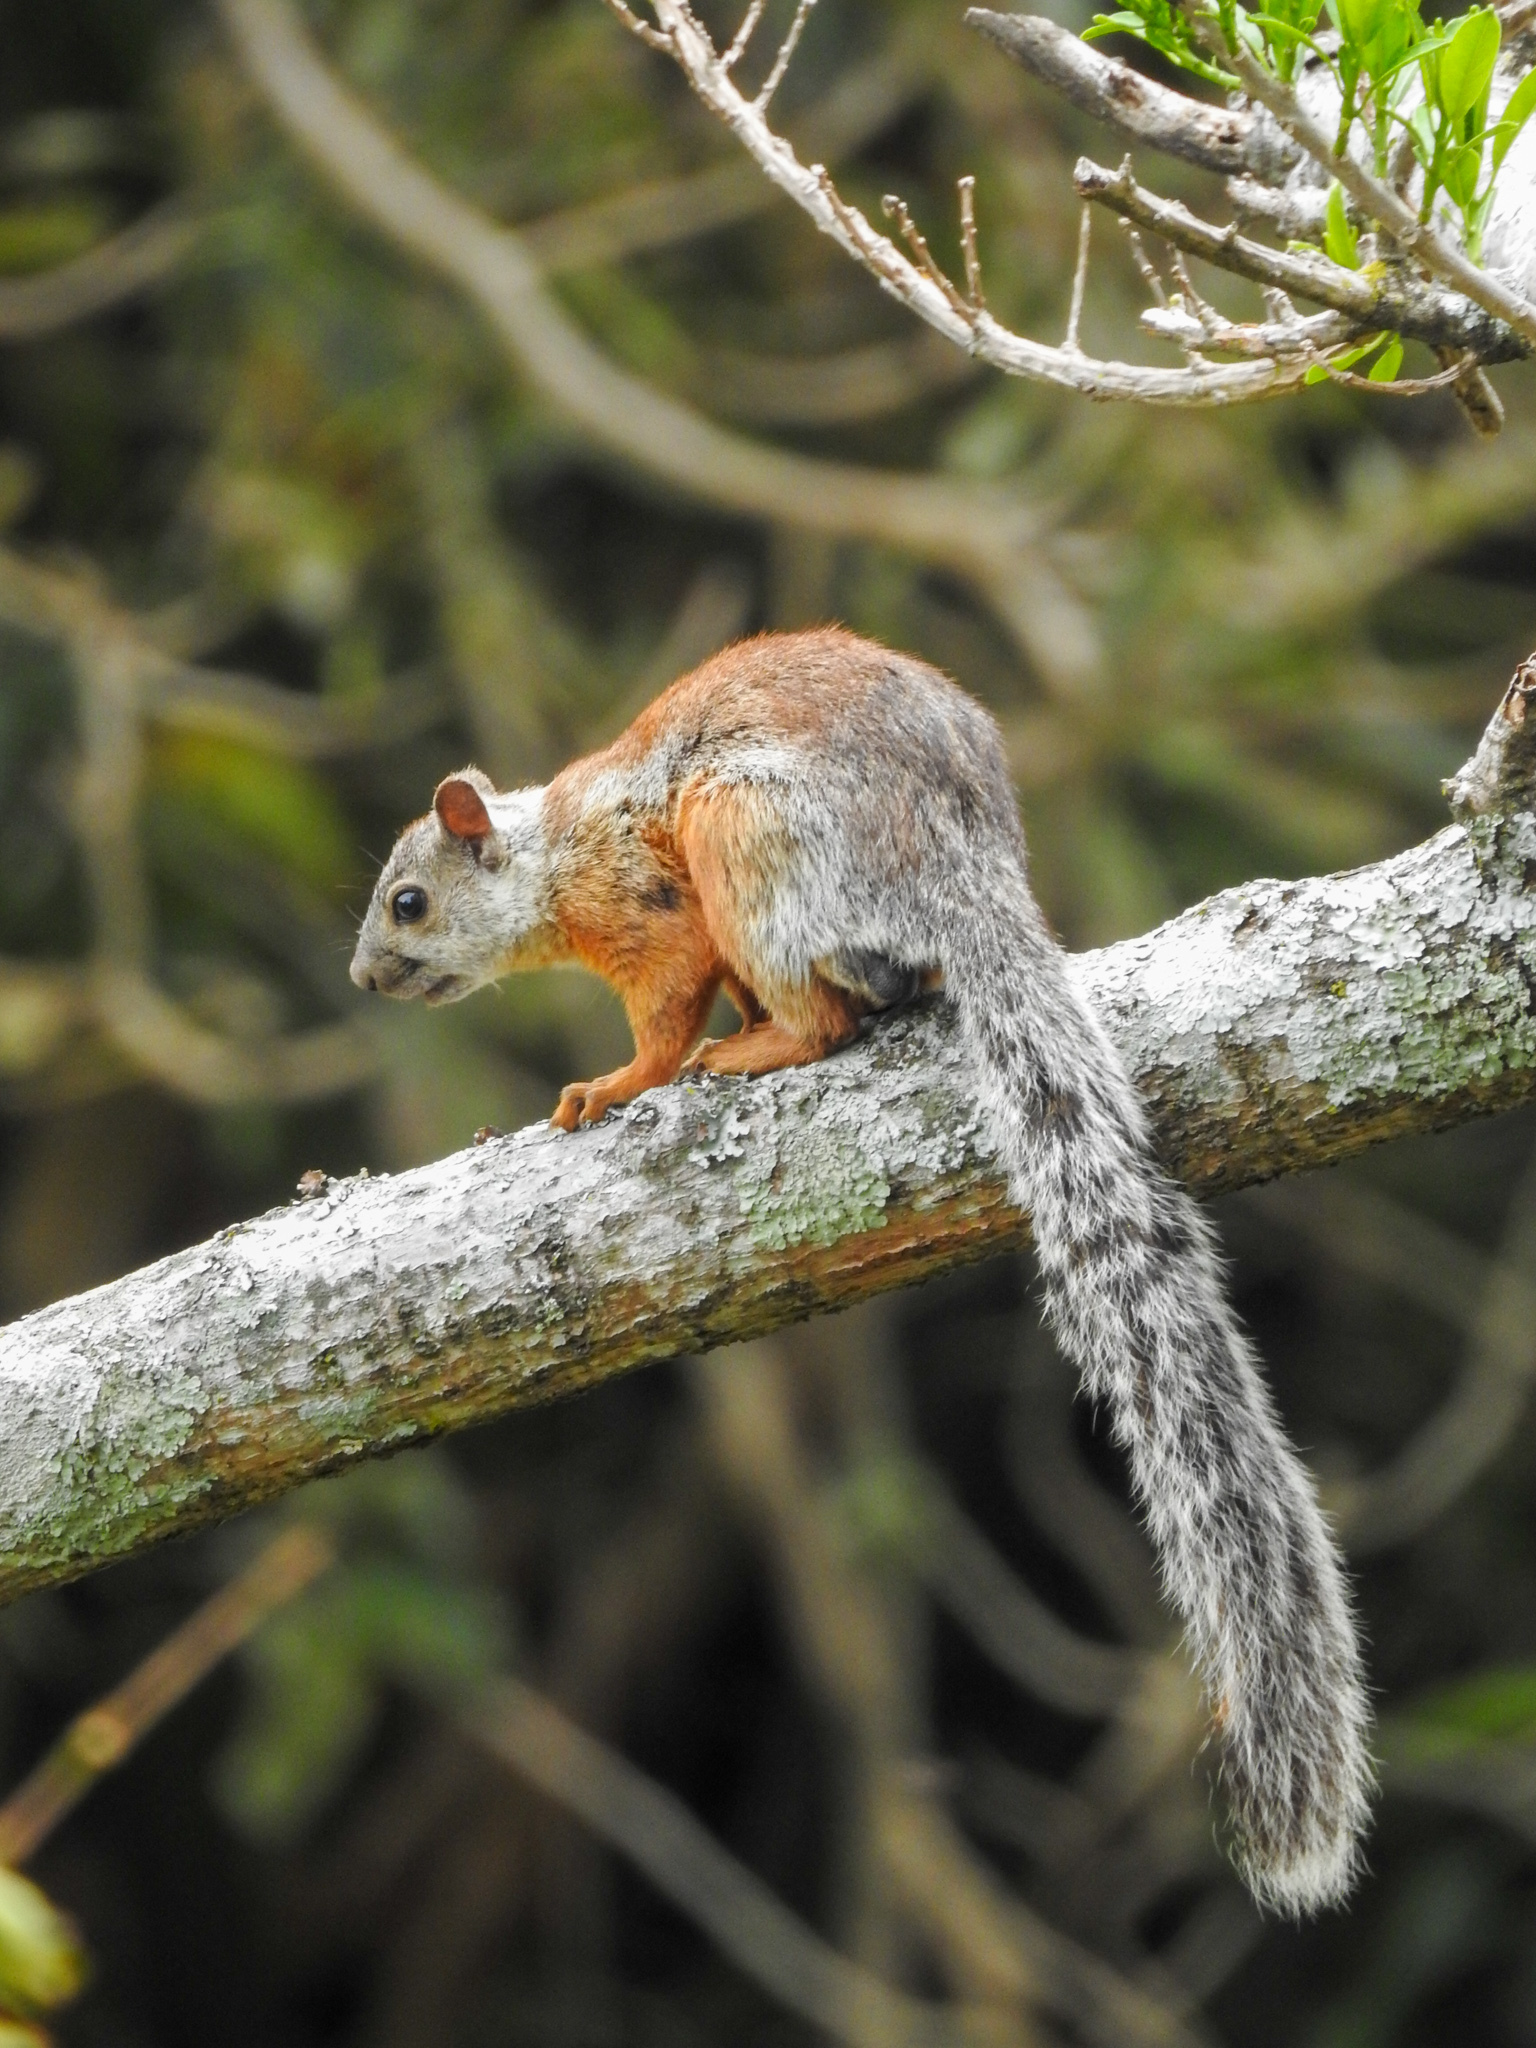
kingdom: Animalia
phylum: Chordata
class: Mammalia
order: Rodentia
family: Sciuridae
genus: Sciurus
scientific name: Sciurus variegatoides
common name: Variegated squirrel
